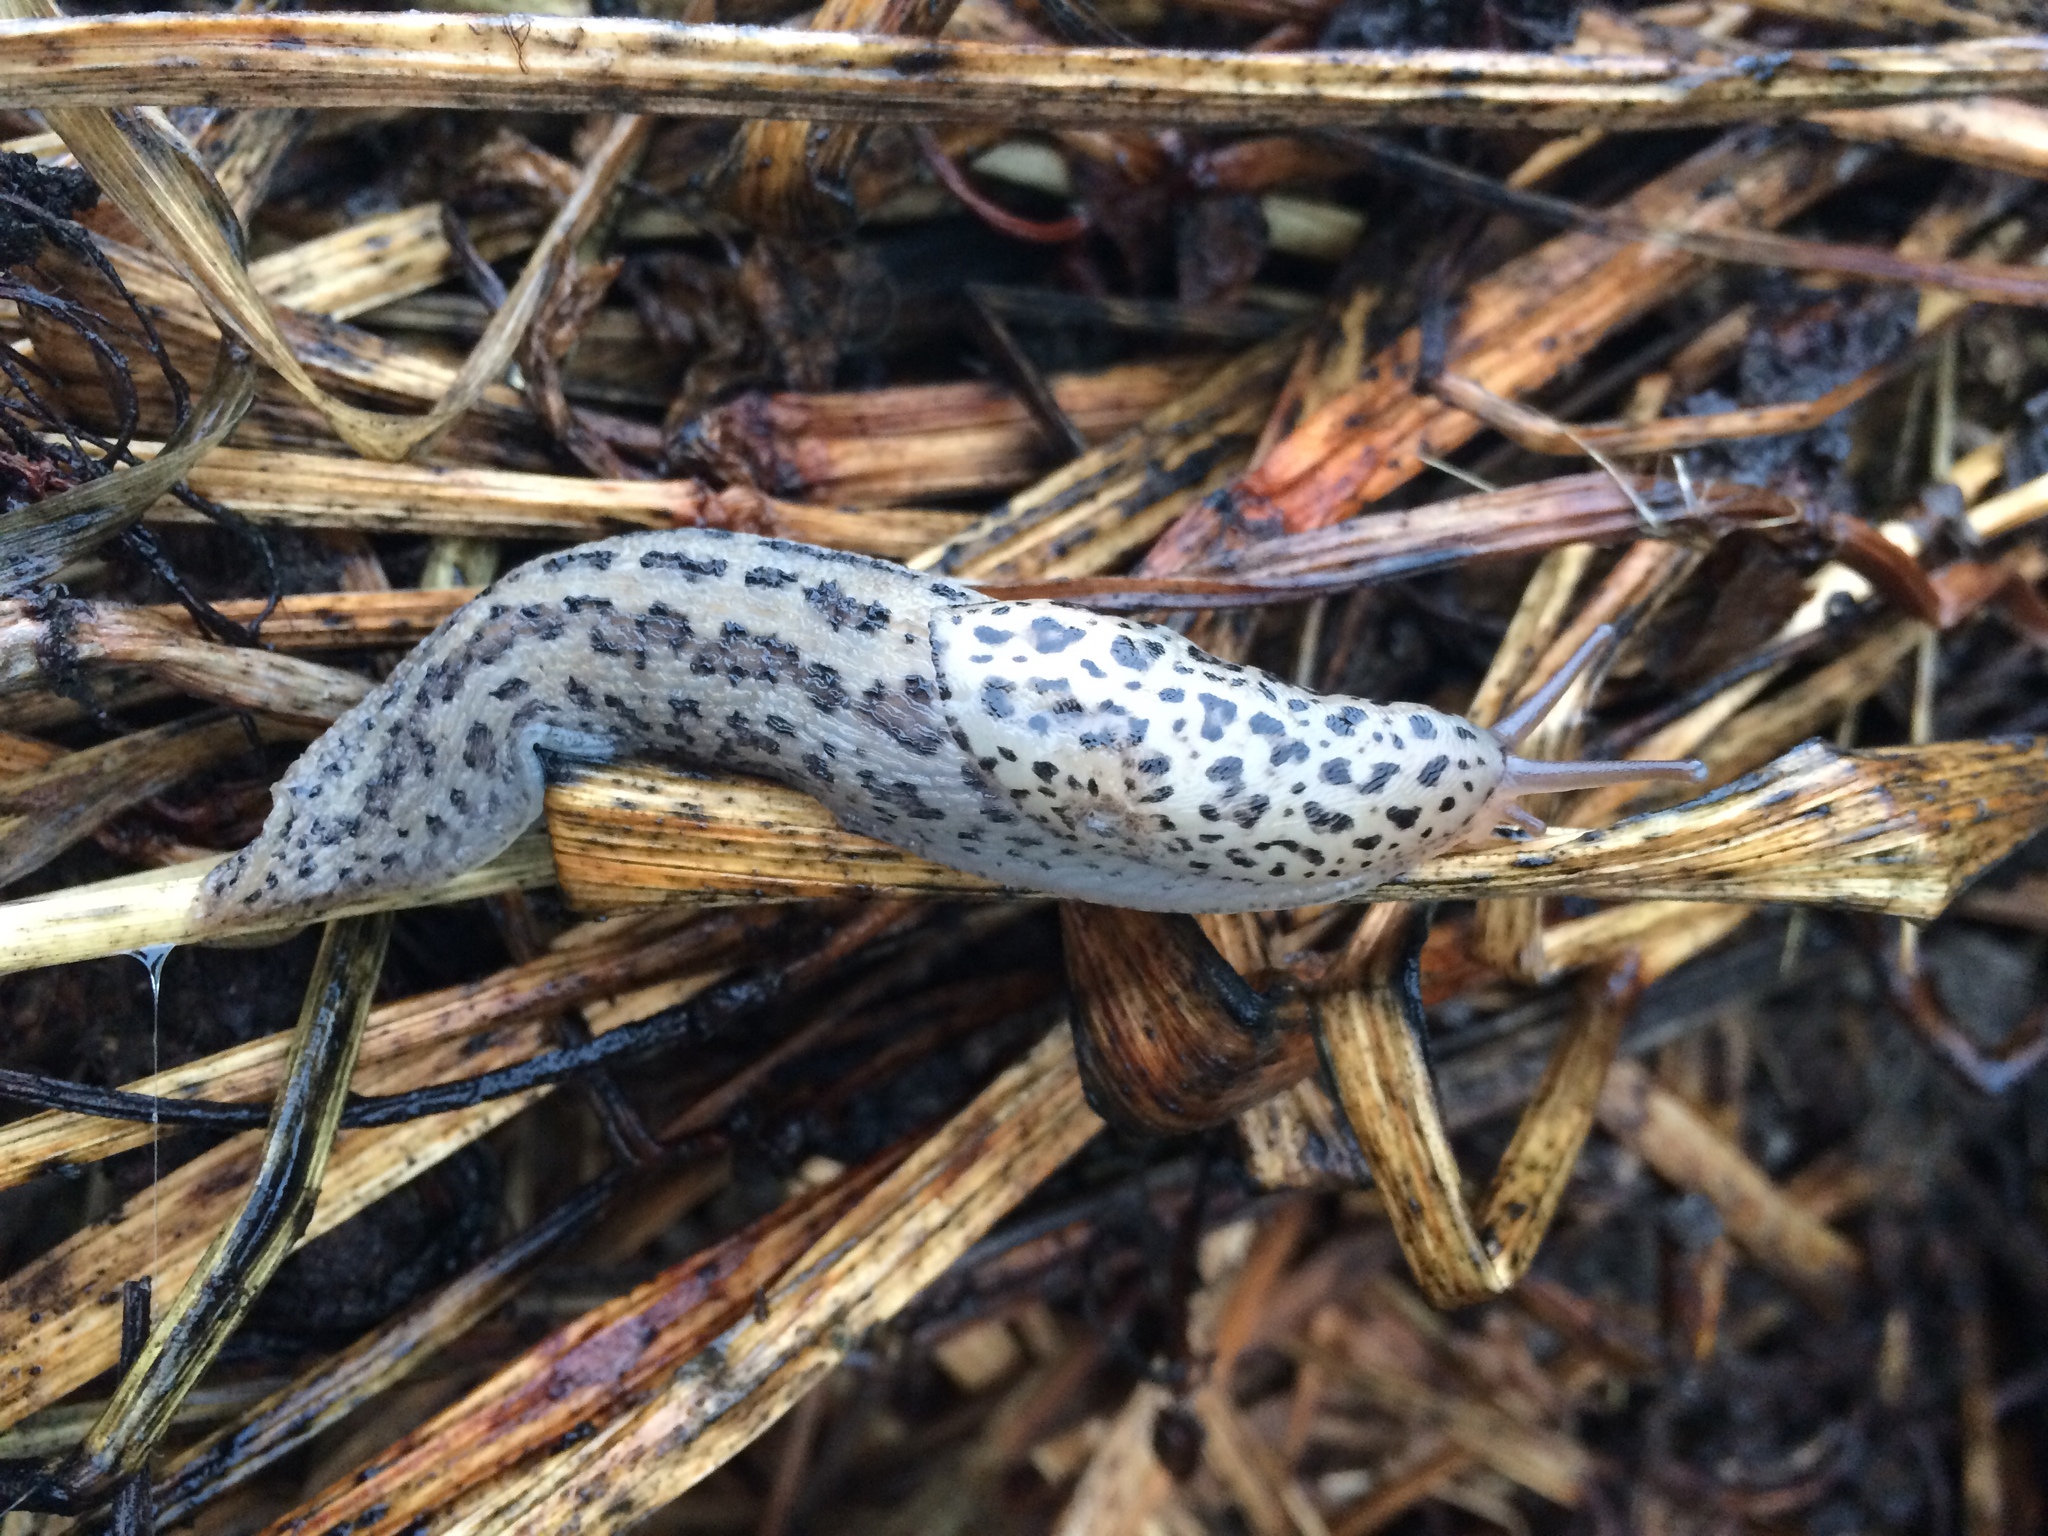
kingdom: Animalia
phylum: Mollusca
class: Gastropoda
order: Stylommatophora
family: Limacidae
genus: Limax
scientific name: Limax maximus
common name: Great grey slug
